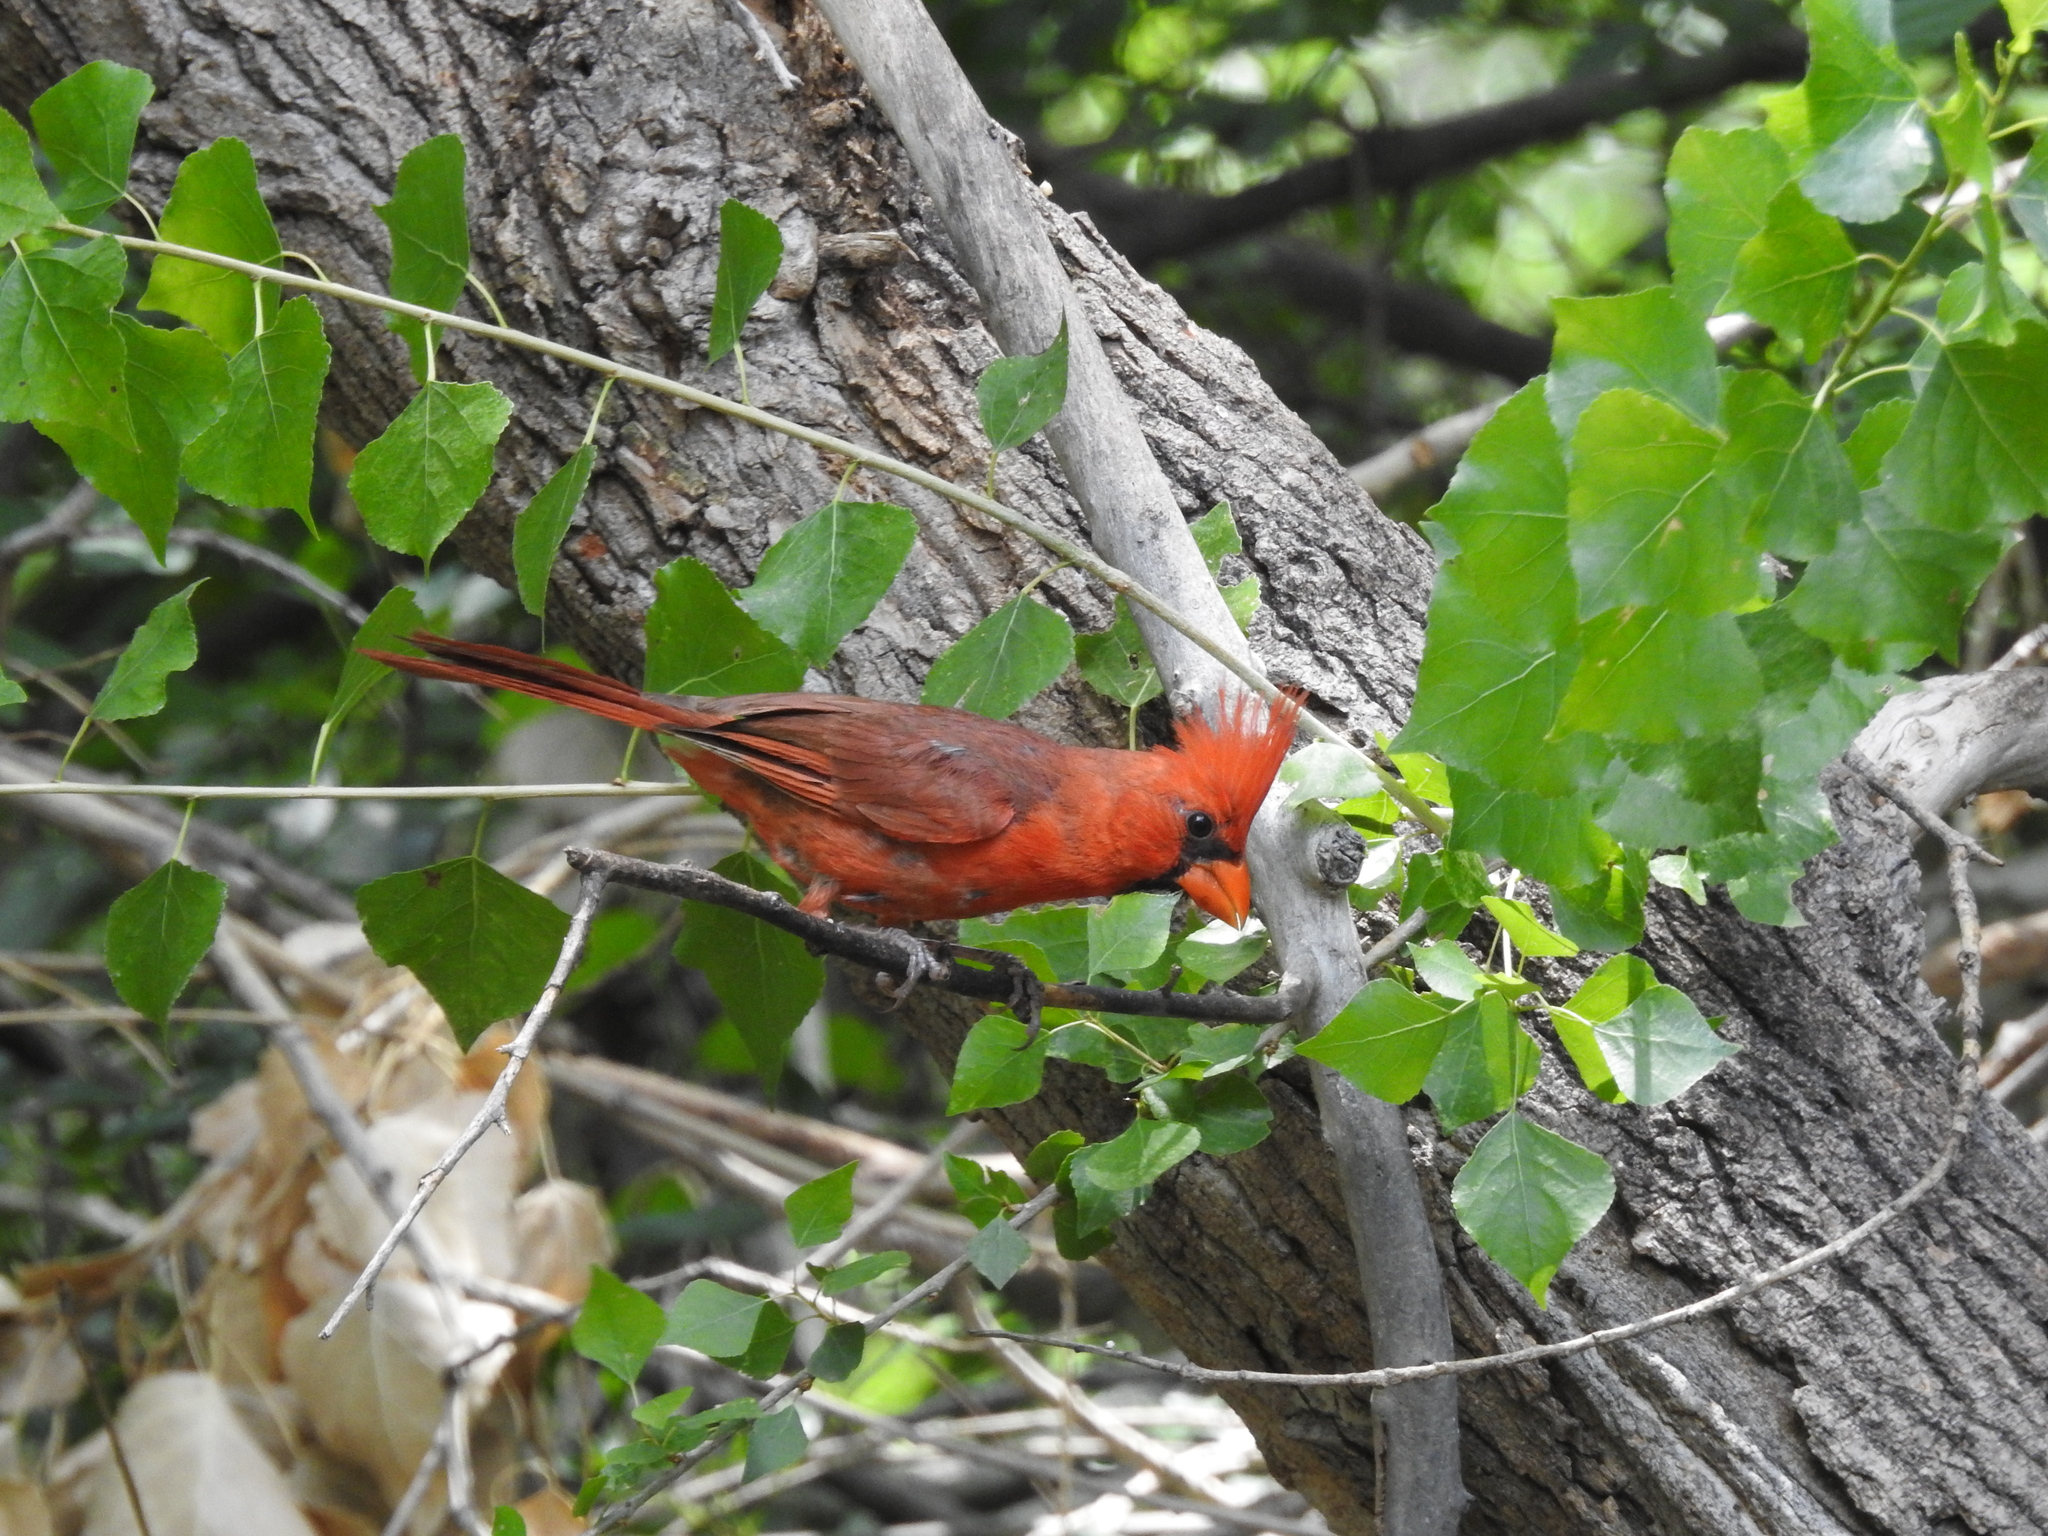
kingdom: Animalia
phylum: Chordata
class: Aves
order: Passeriformes
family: Cardinalidae
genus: Cardinalis
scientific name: Cardinalis cardinalis
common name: Northern cardinal
